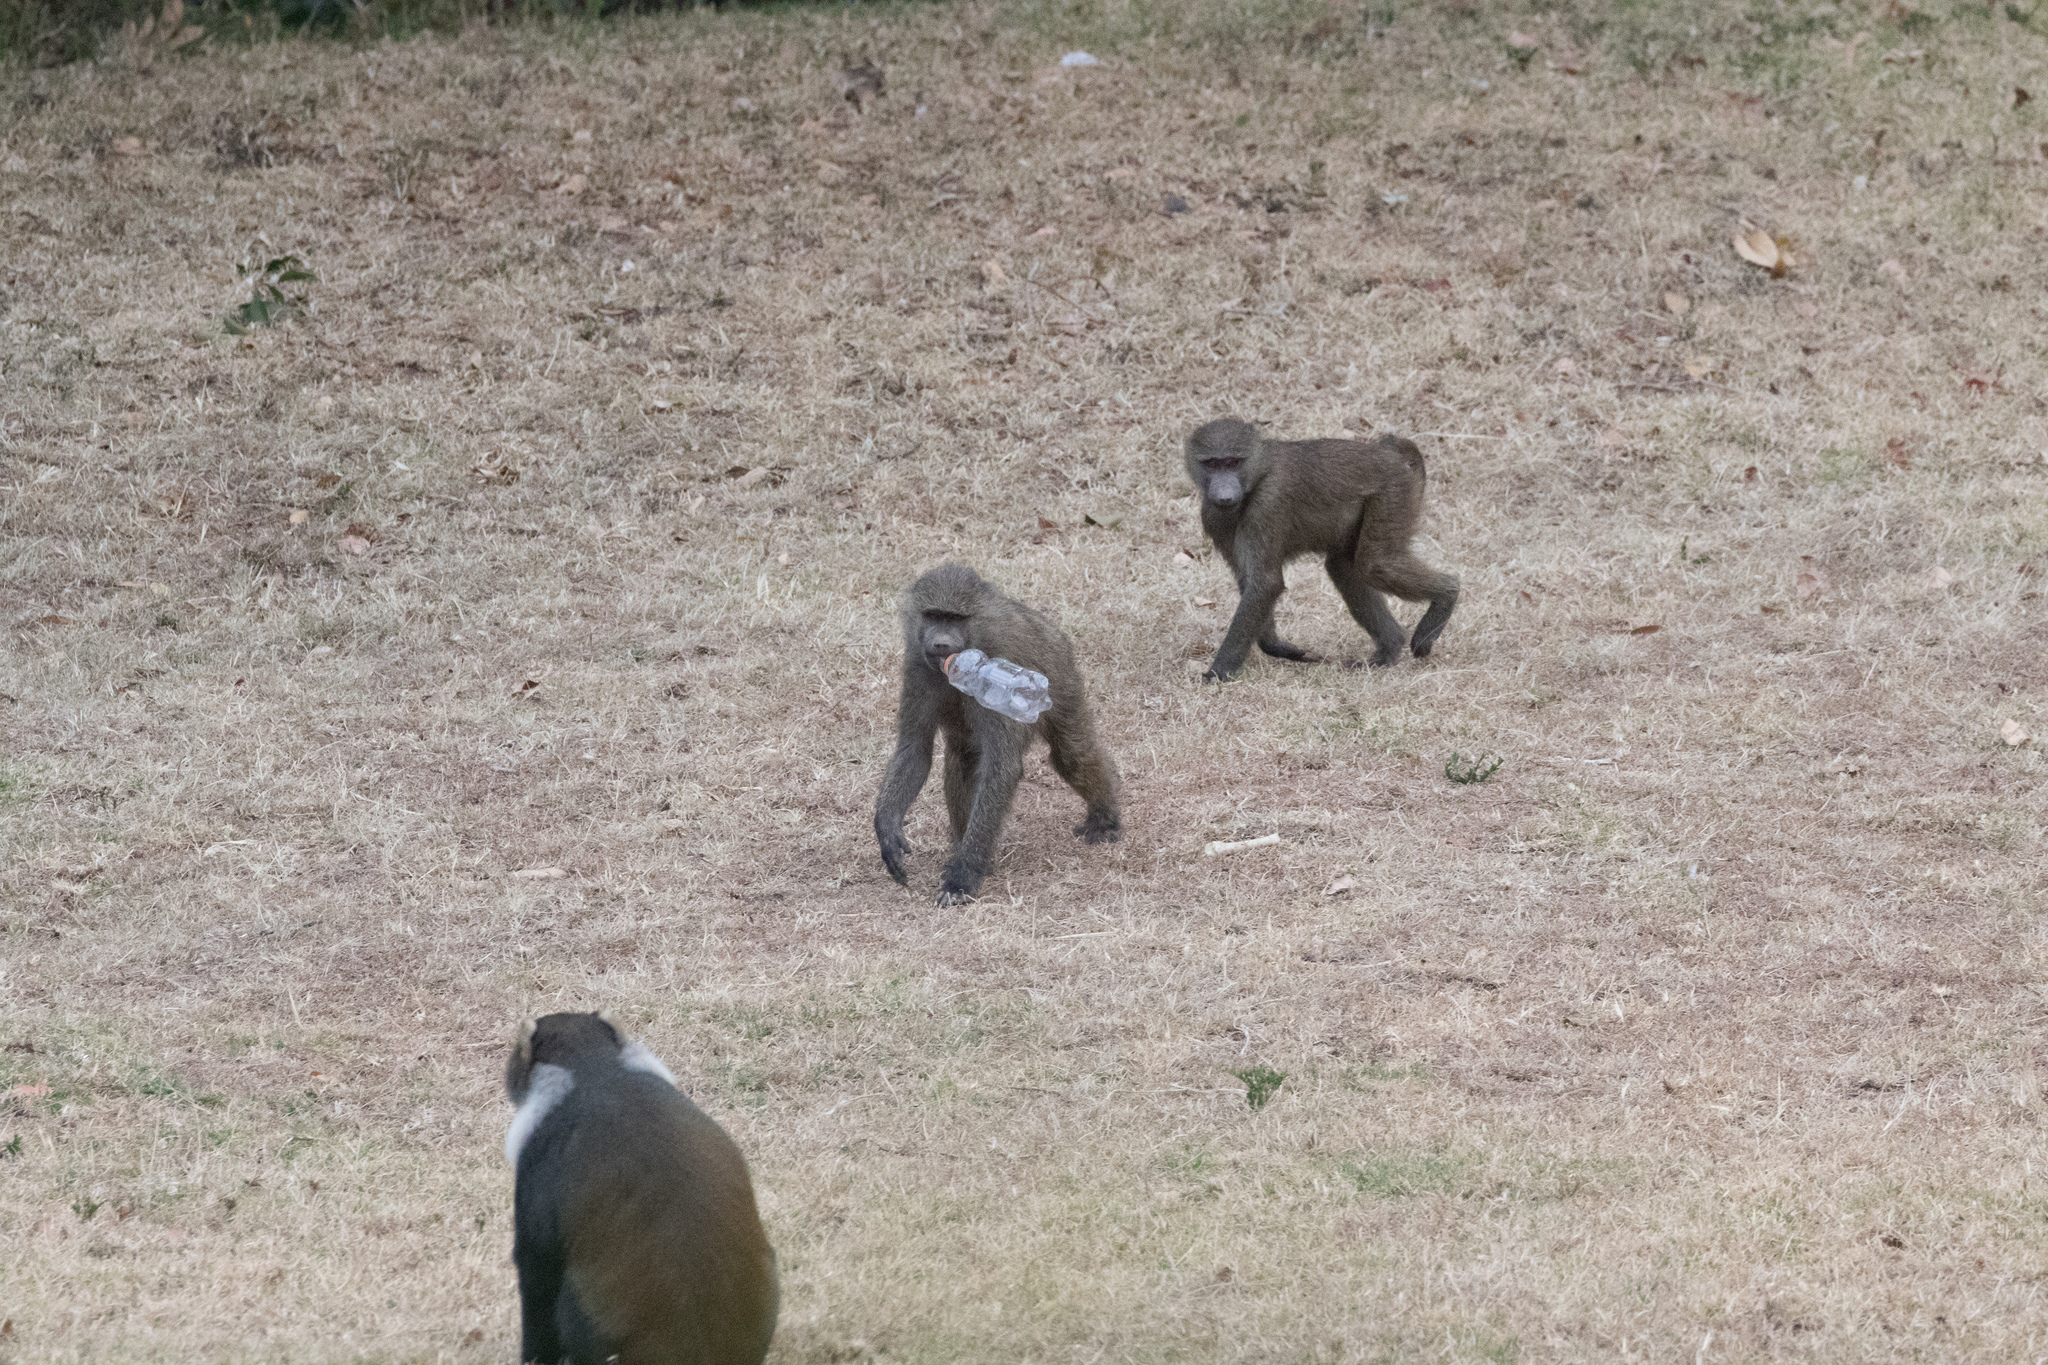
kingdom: Animalia
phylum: Chordata
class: Mammalia
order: Primates
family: Cercopithecidae
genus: Papio
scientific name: Papio anubis
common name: Olive baboon
